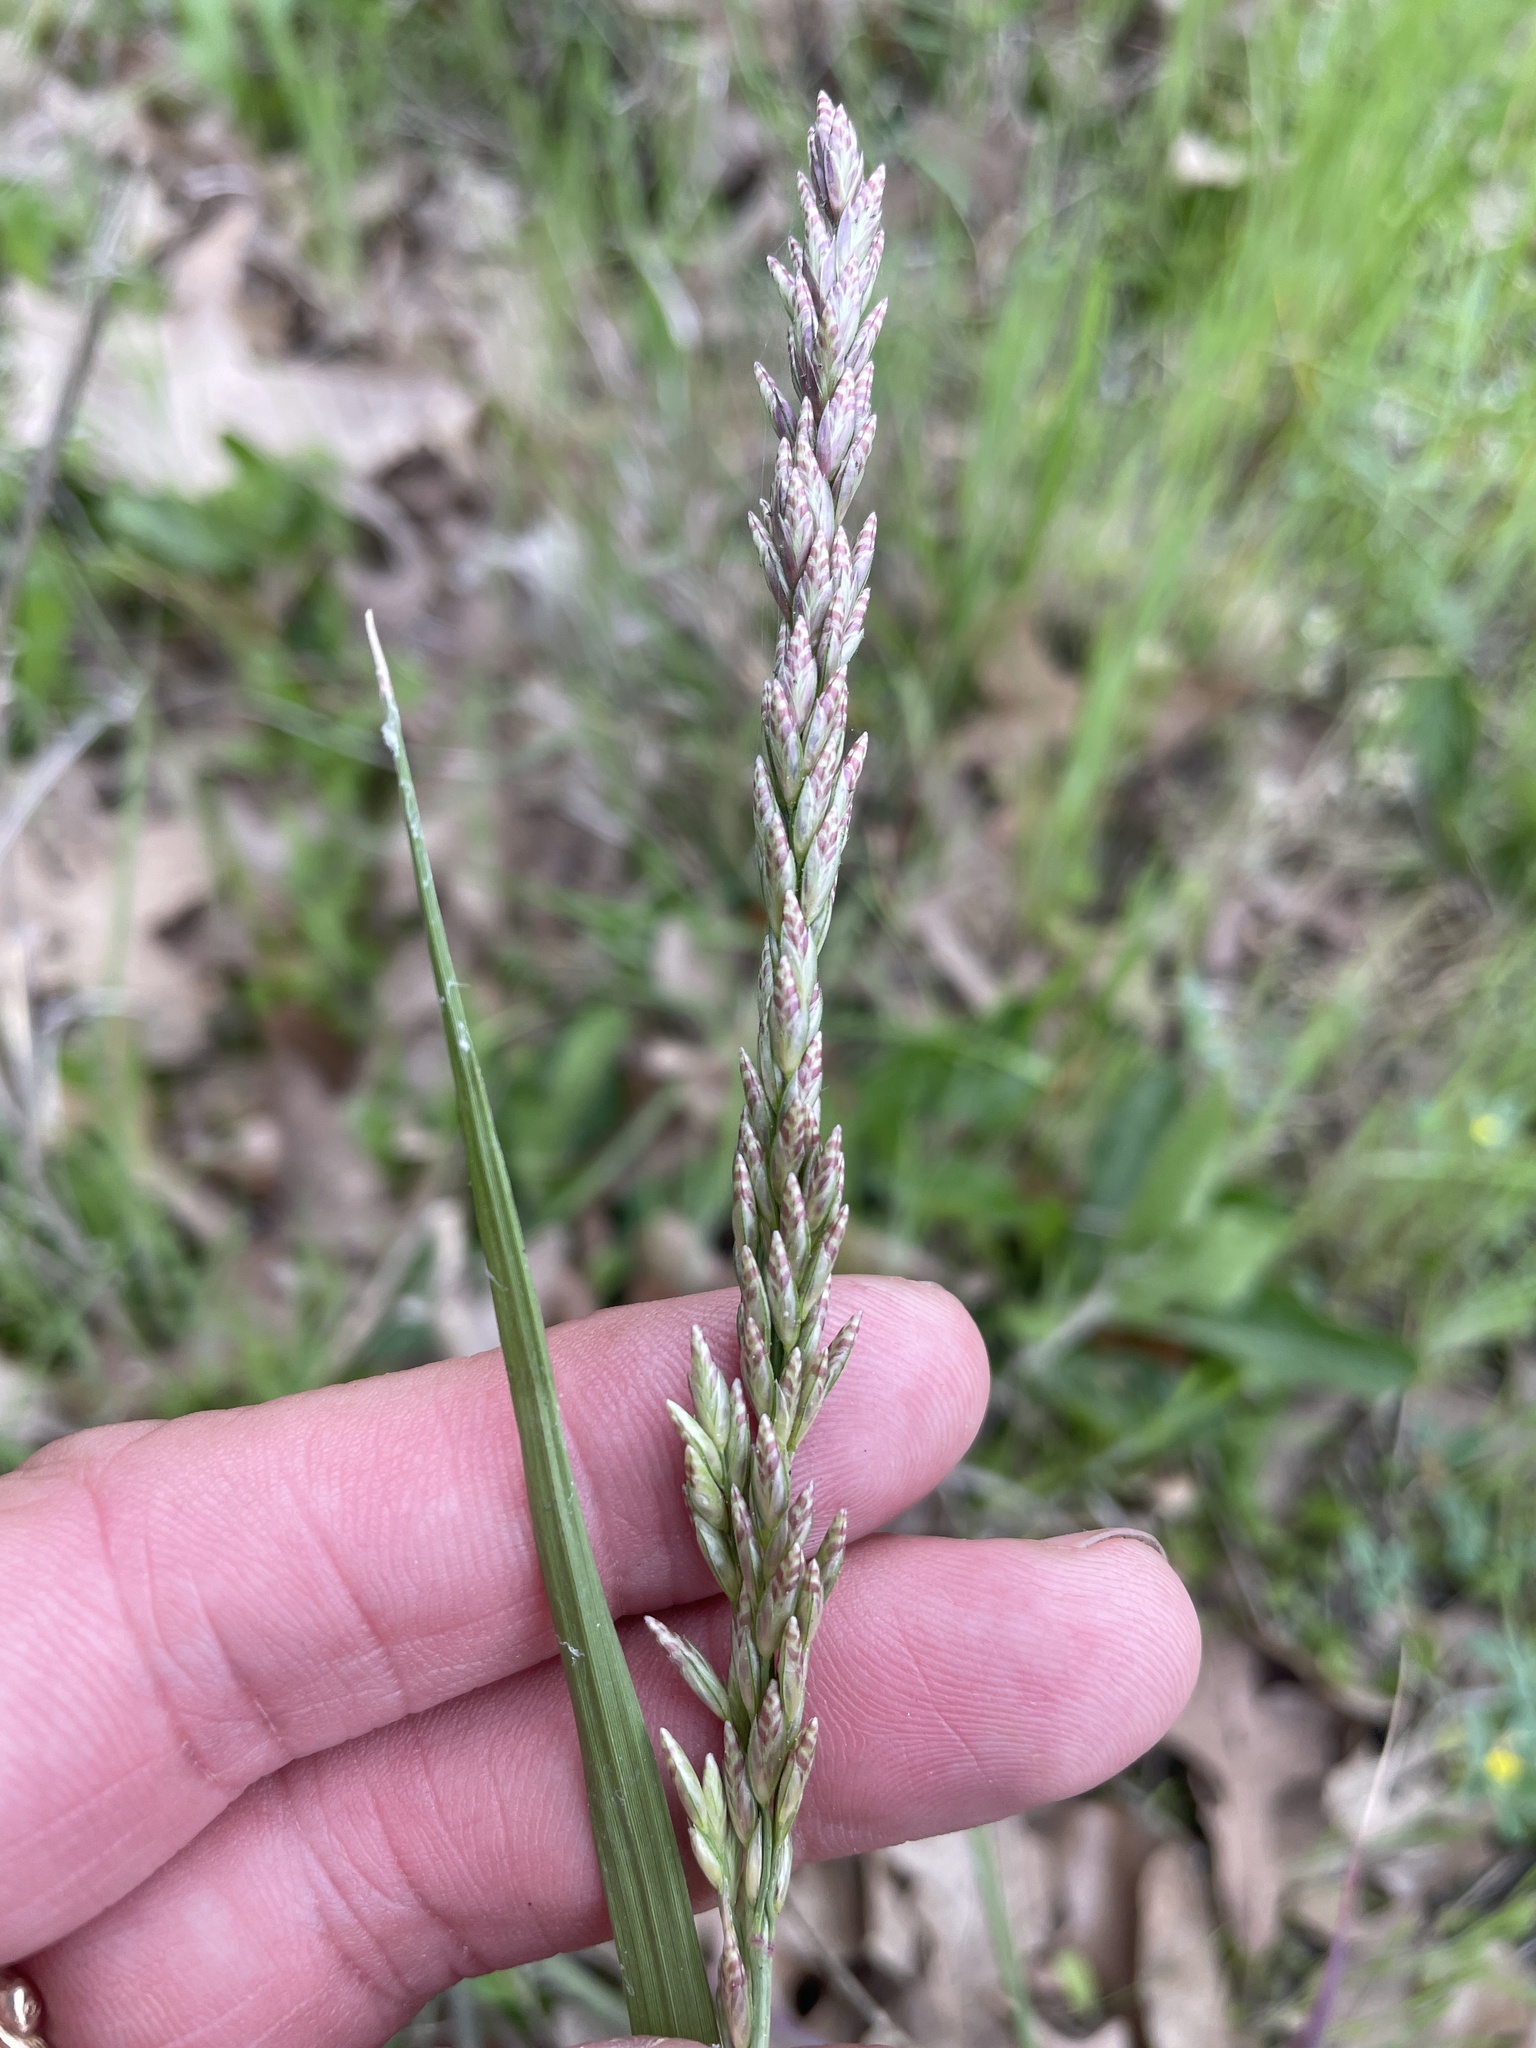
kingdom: Plantae
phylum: Tracheophyta
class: Liliopsida
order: Poales
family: Poaceae
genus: Tridens
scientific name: Tridens albescens
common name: White tridens
